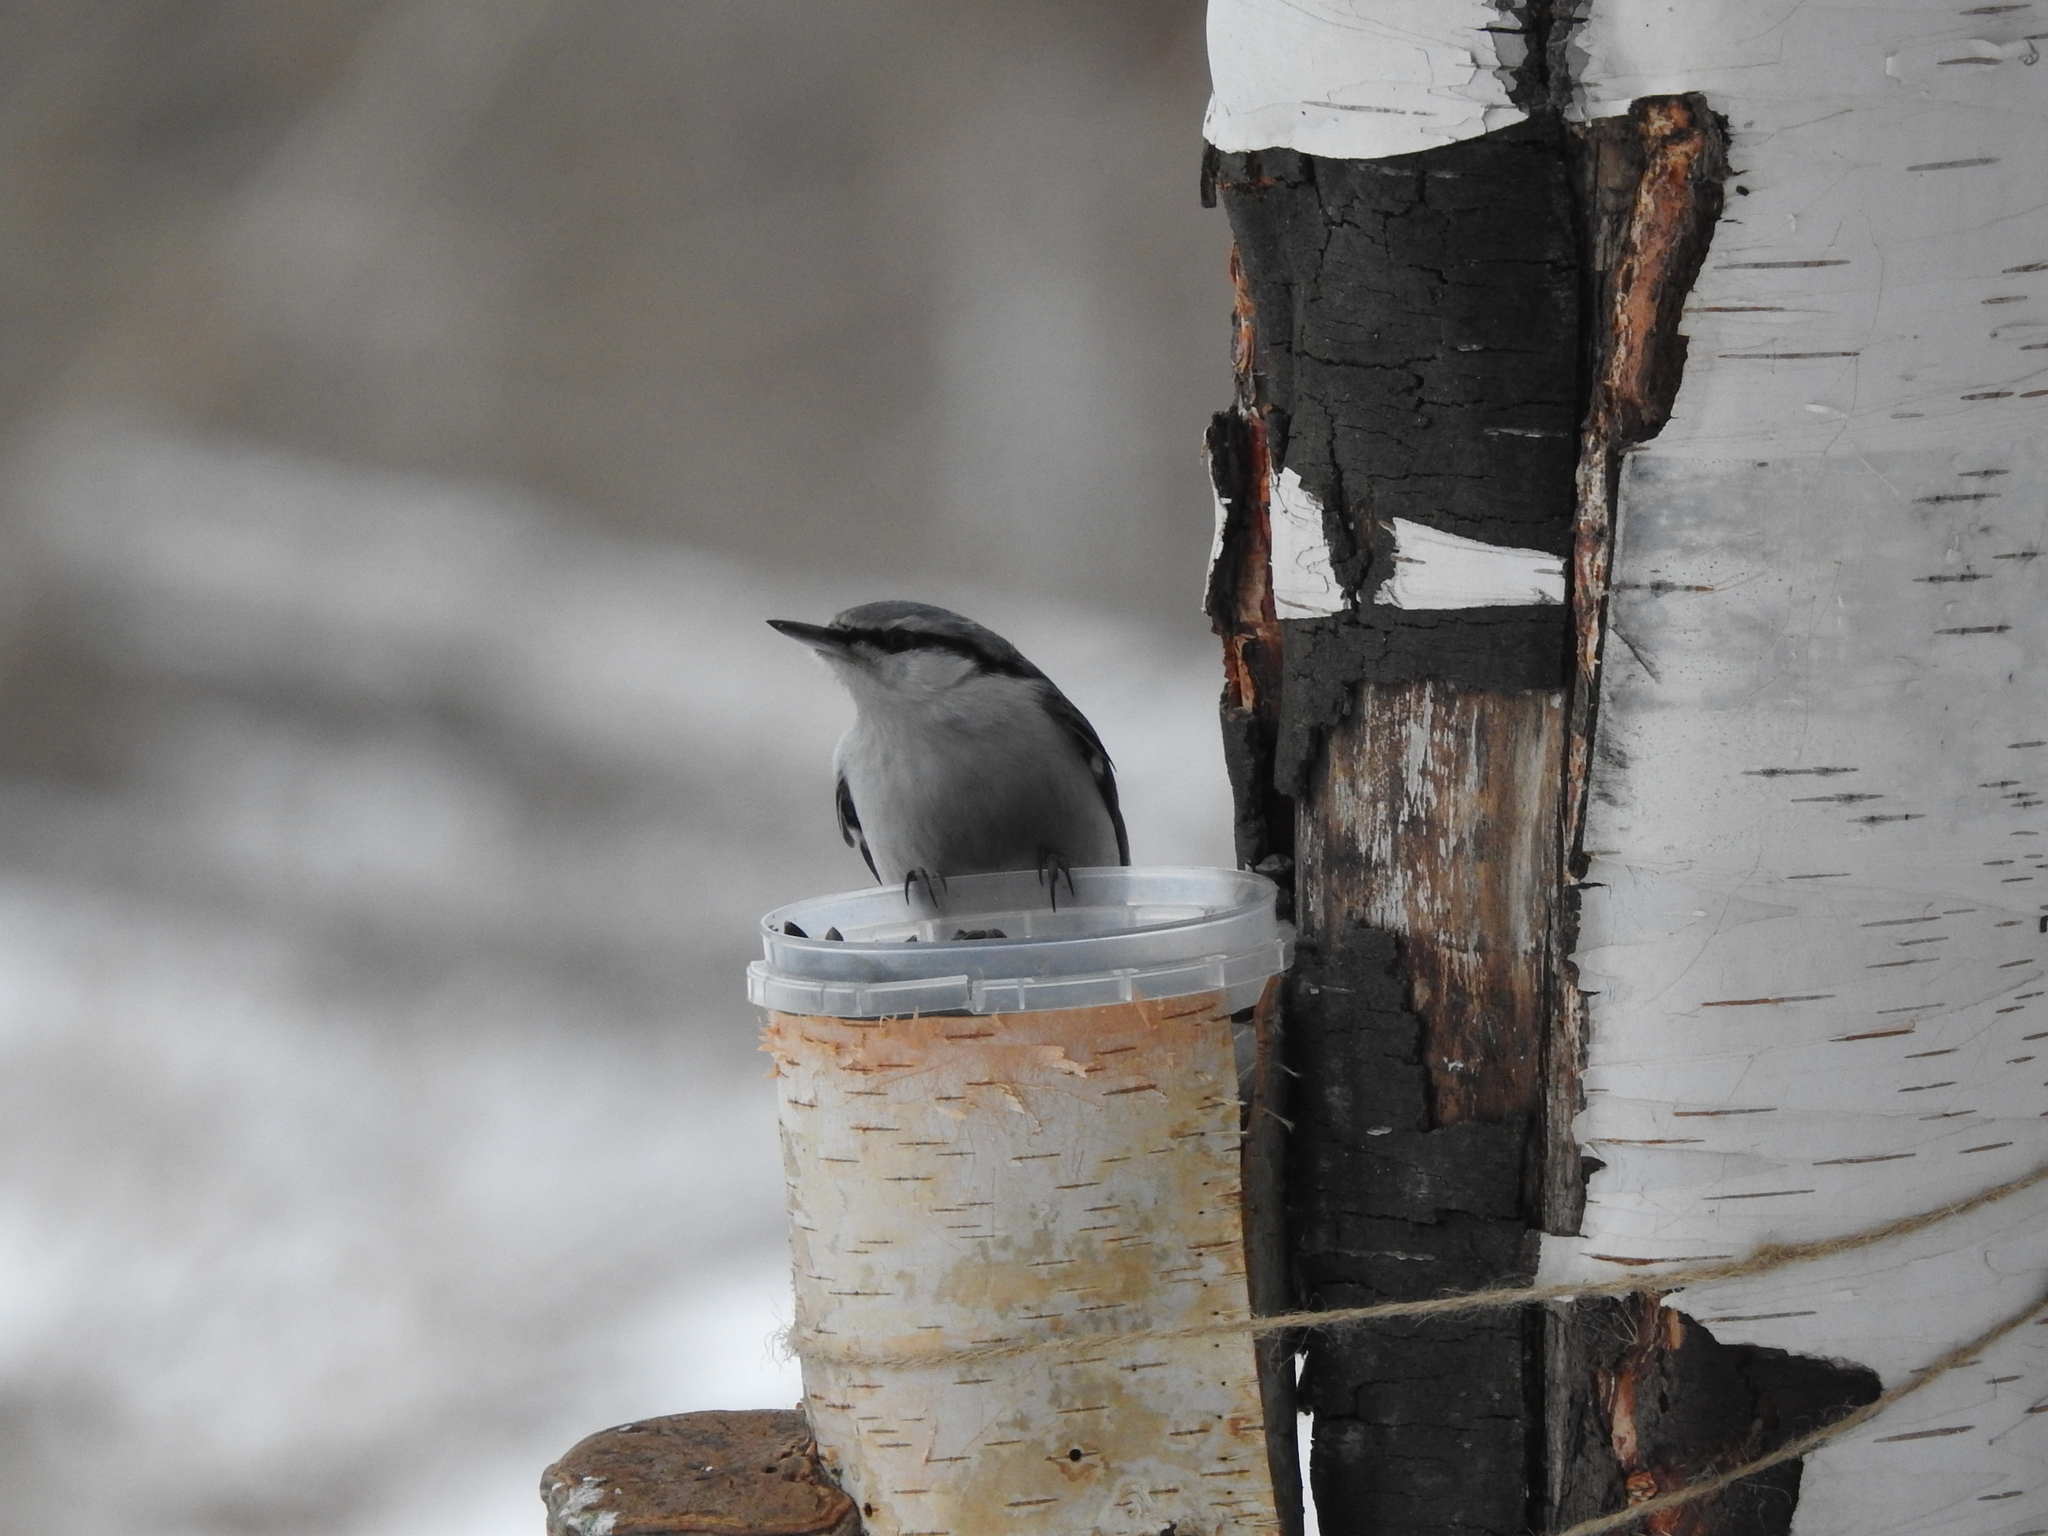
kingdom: Animalia
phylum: Chordata
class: Aves
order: Passeriformes
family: Sittidae
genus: Sitta
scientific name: Sitta europaea
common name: Eurasian nuthatch
